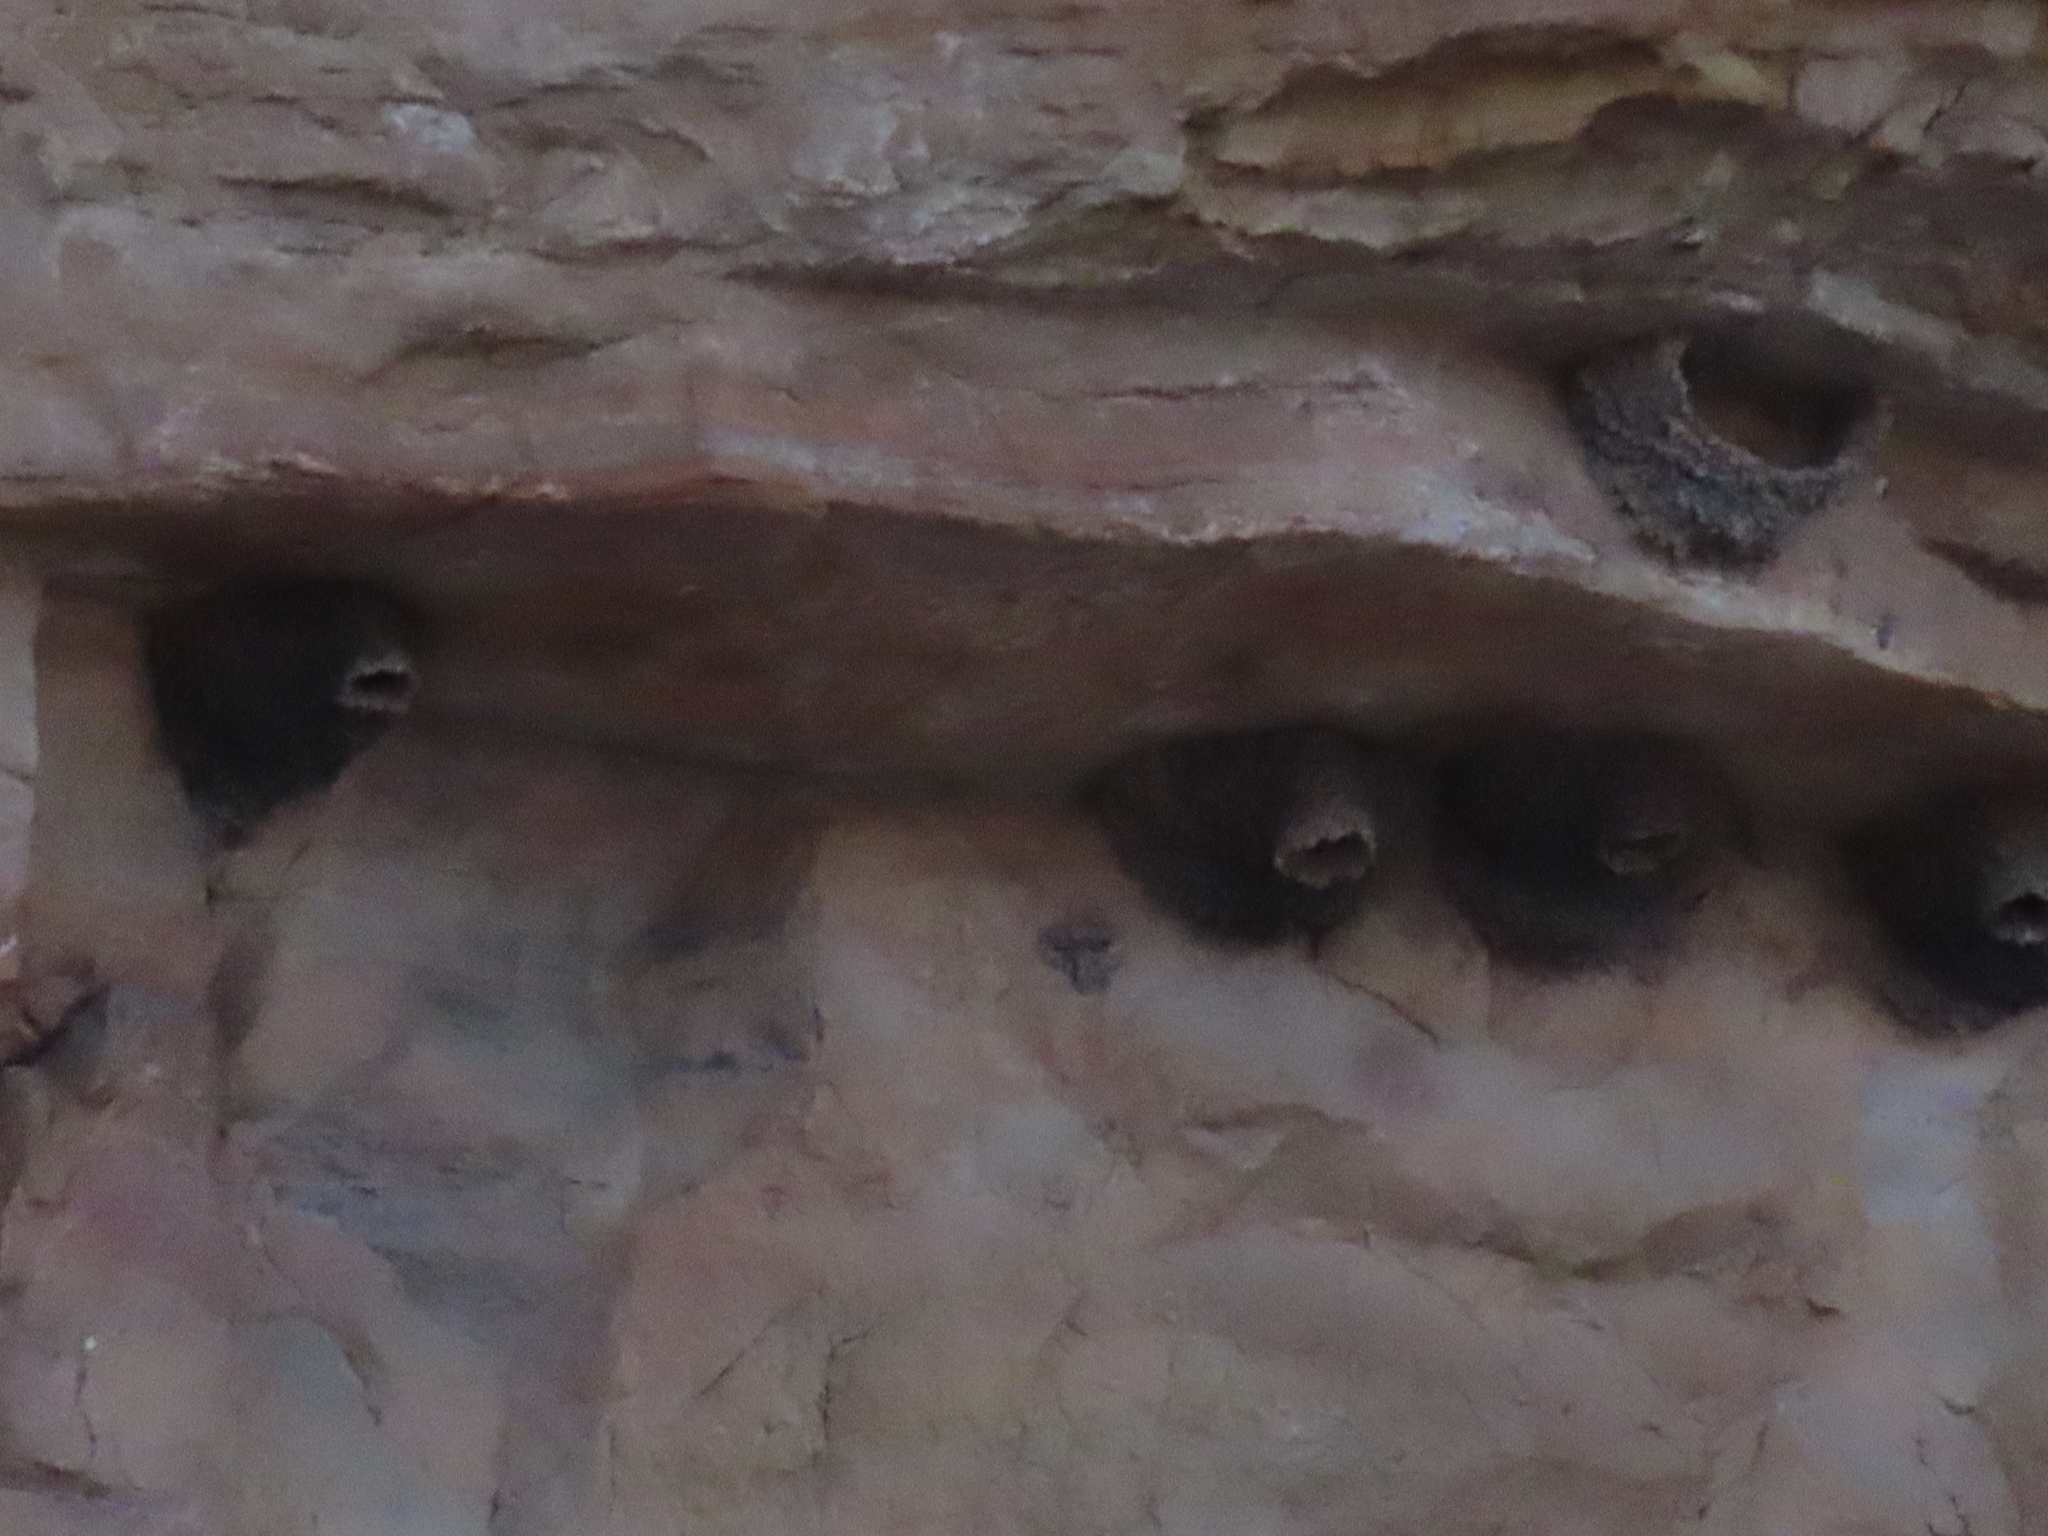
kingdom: Animalia
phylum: Chordata
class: Aves
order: Passeriformes
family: Hirundinidae
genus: Petrochelidon
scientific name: Petrochelidon pyrrhonota
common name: American cliff swallow
